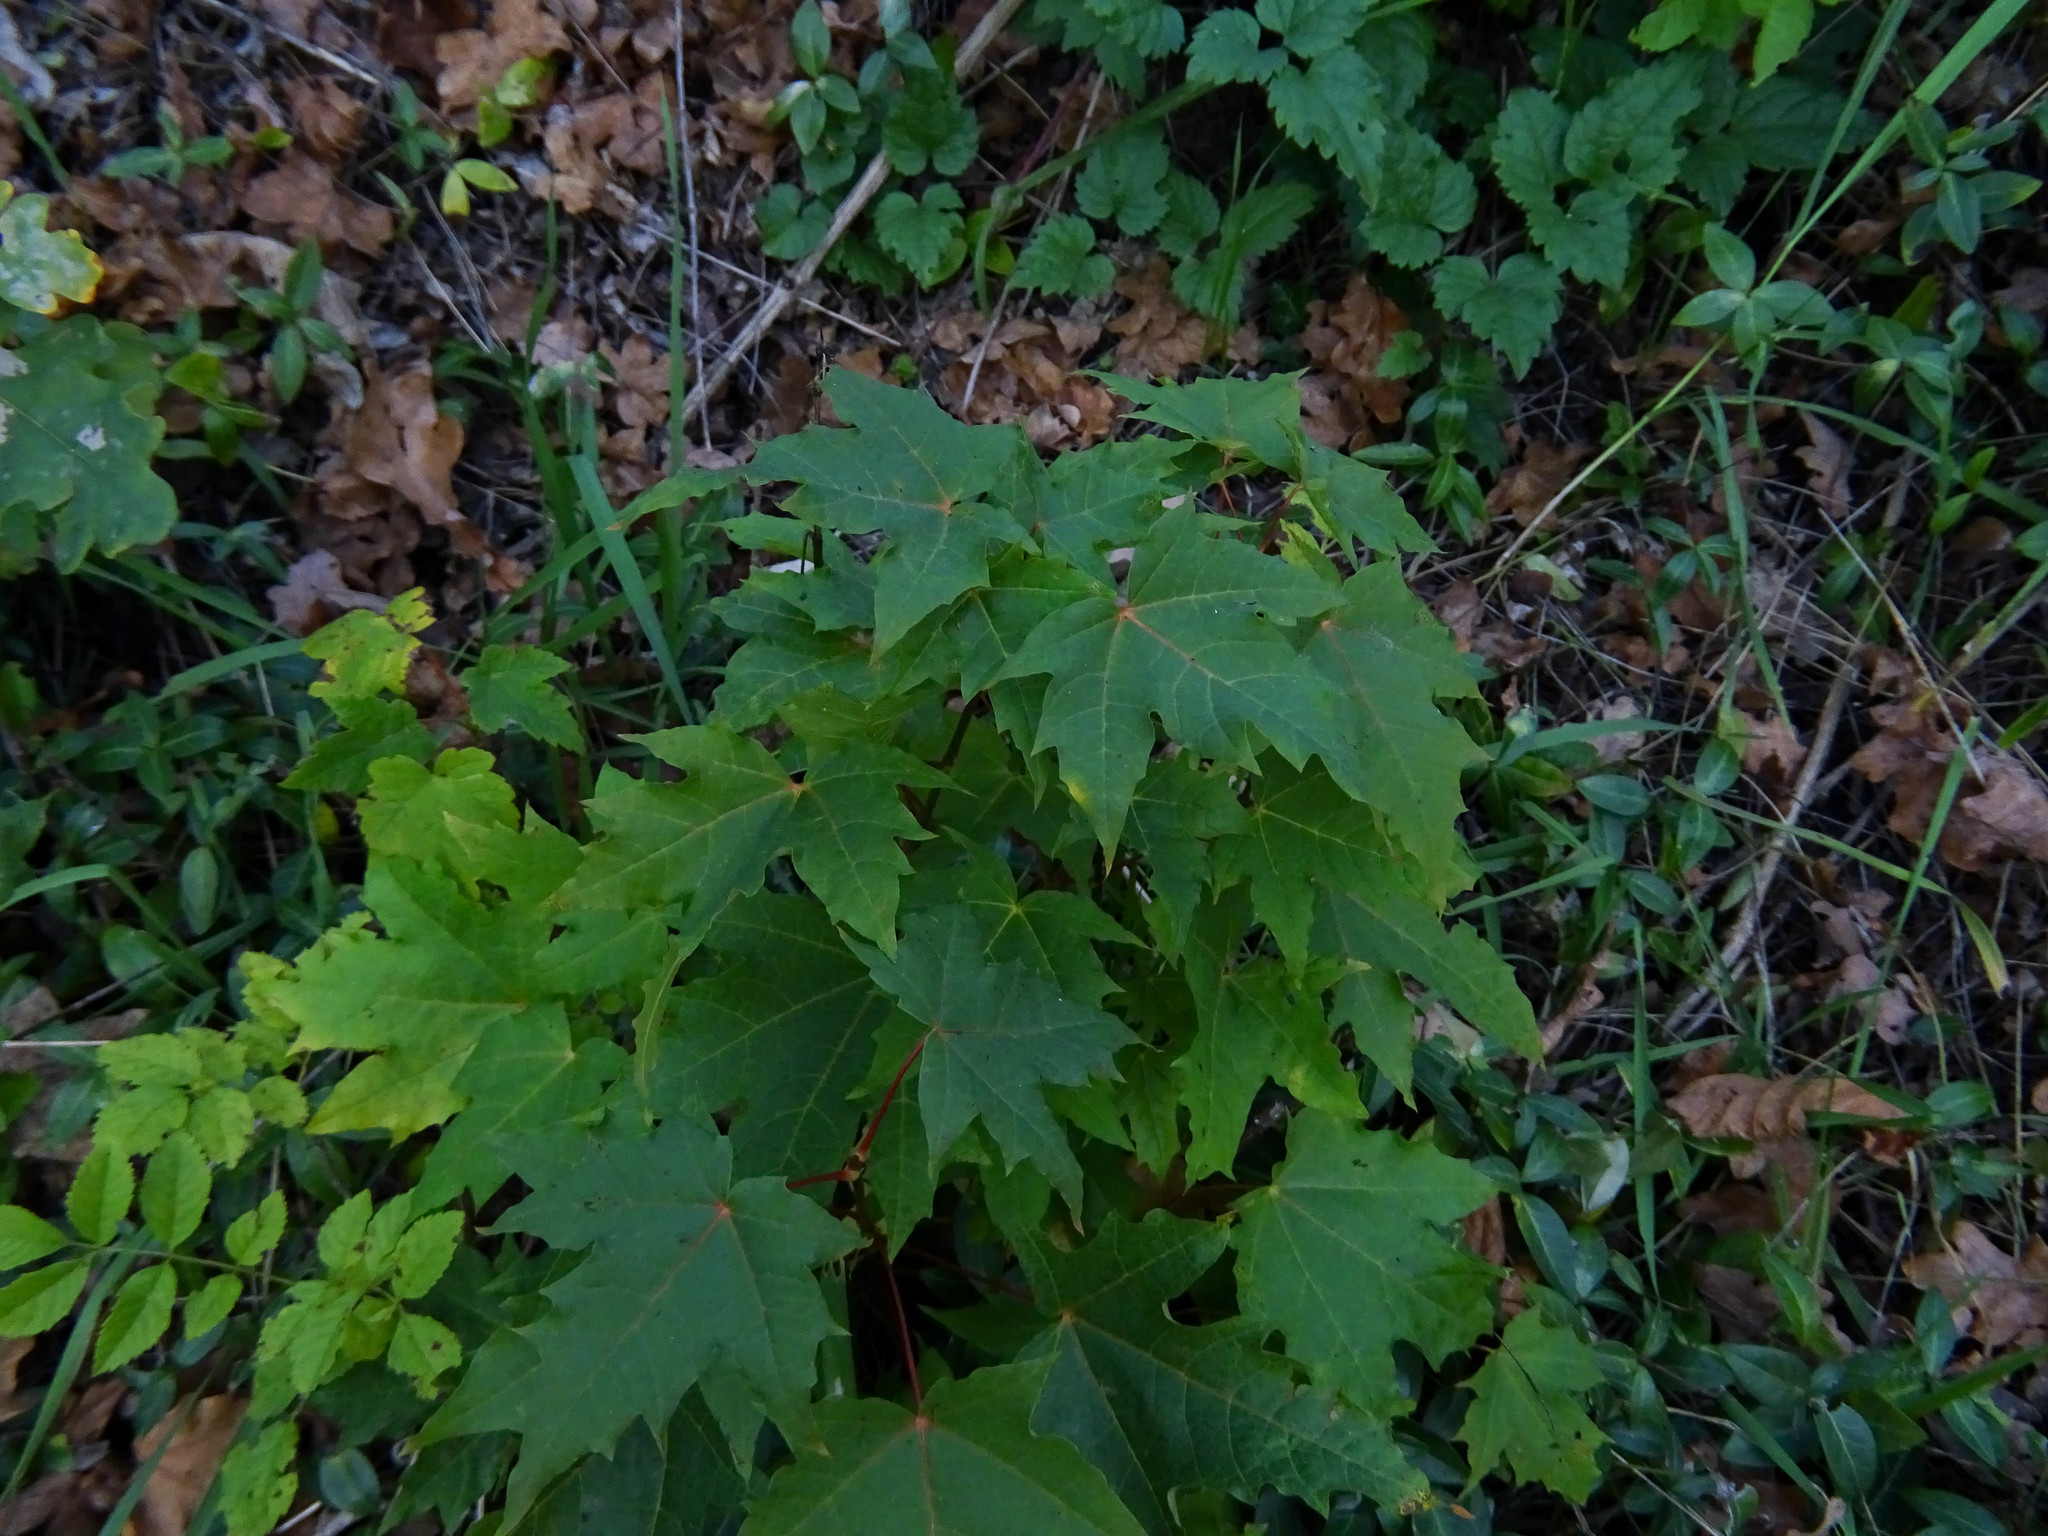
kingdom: Plantae
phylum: Tracheophyta
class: Magnoliopsida
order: Sapindales
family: Sapindaceae
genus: Acer
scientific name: Acer platanoides
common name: Norway maple
